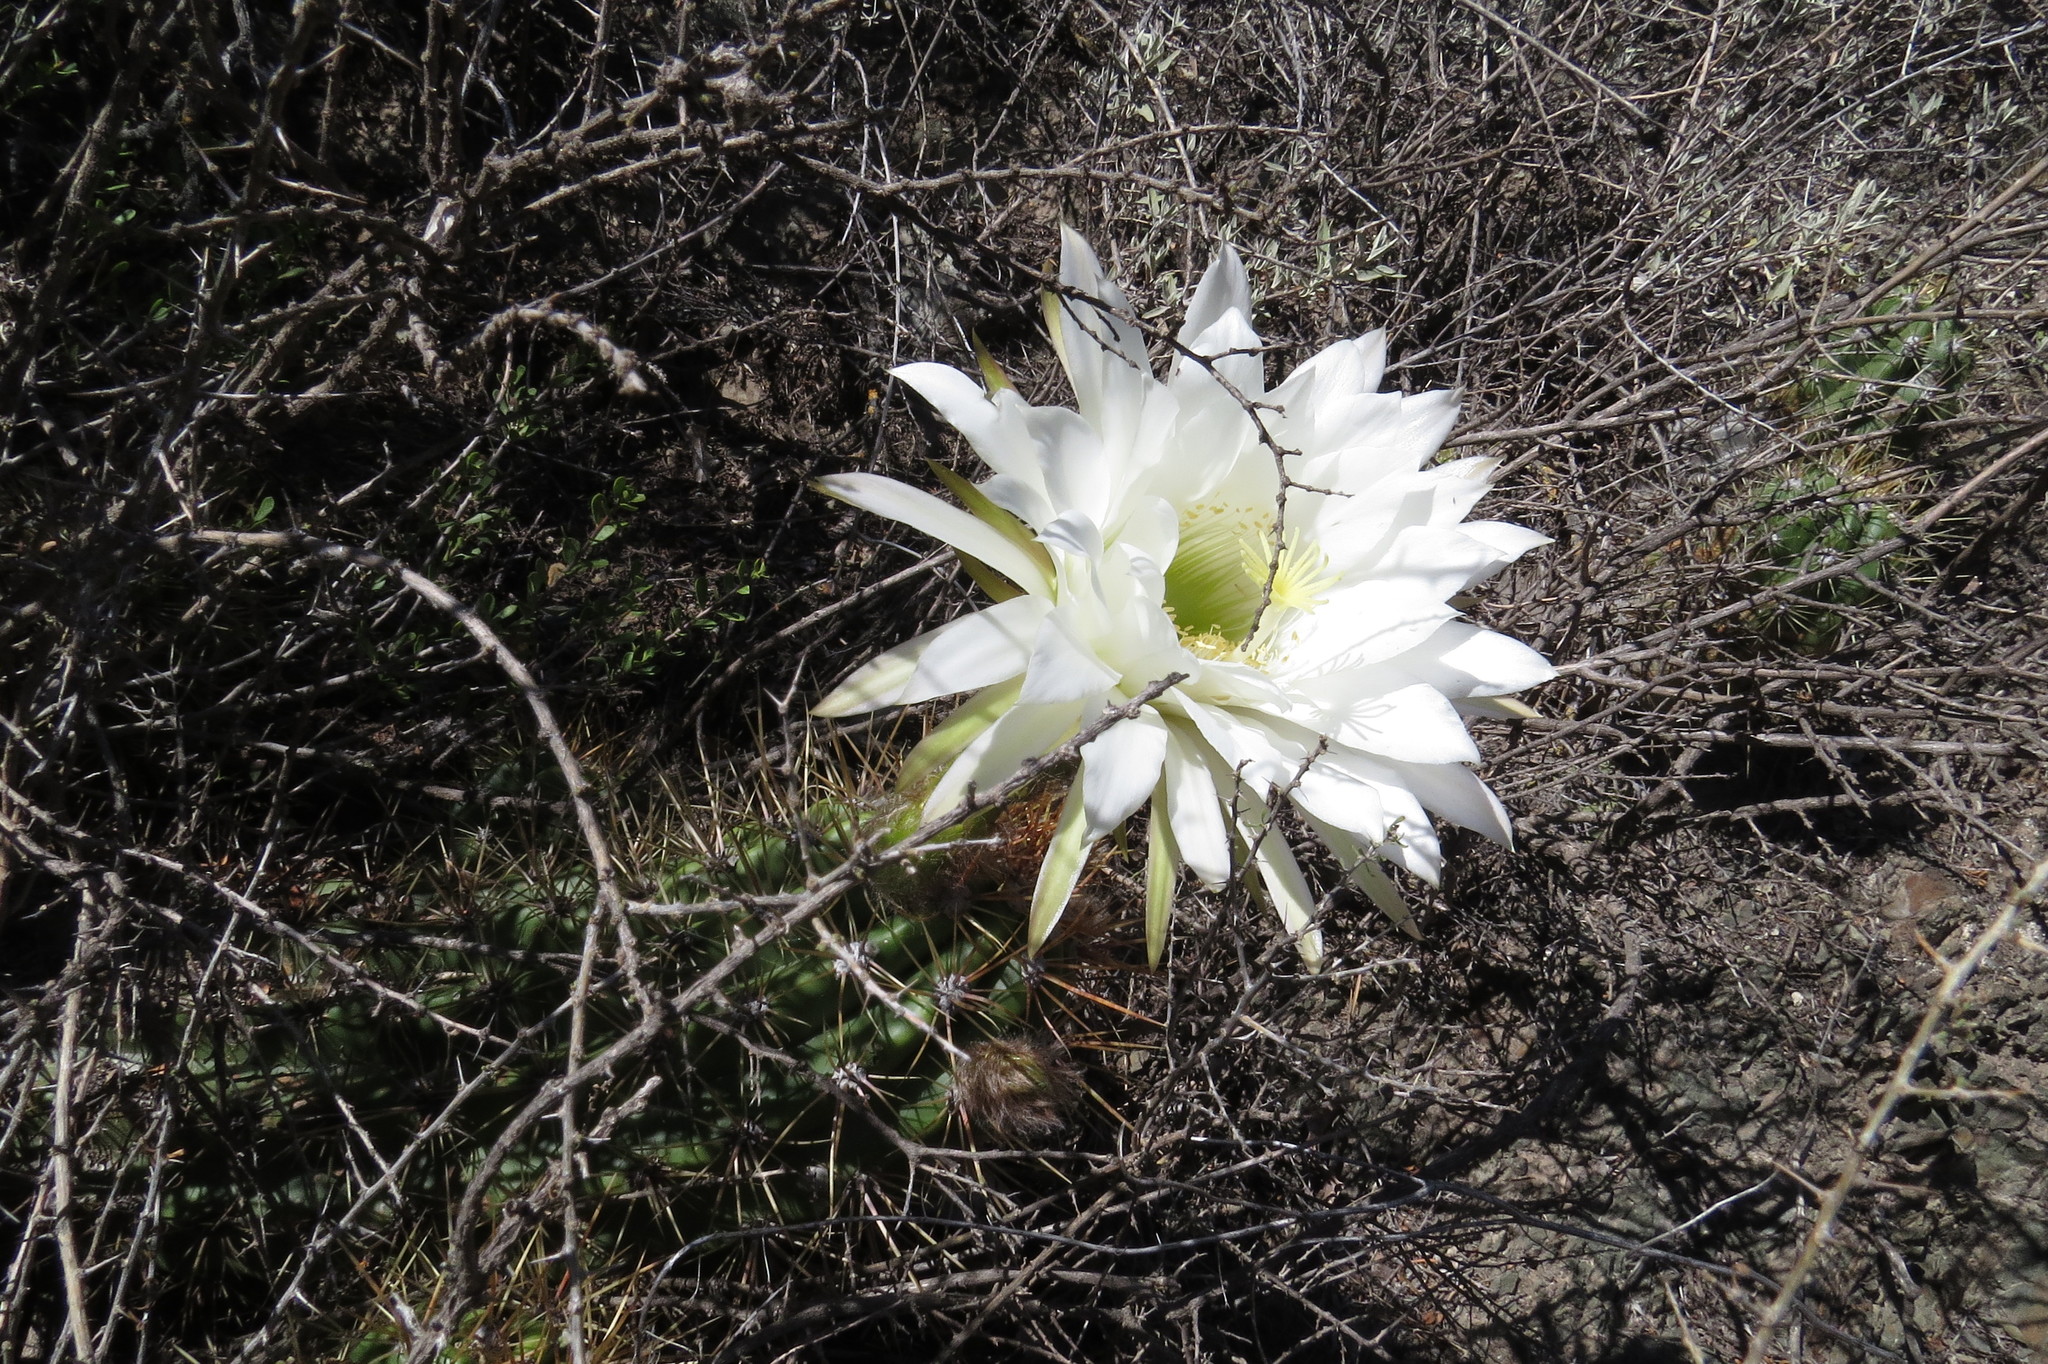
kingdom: Plantae
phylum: Tracheophyta
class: Magnoliopsida
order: Caryophyllales
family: Cactaceae
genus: Soehrensia
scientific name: Soehrensia candicans
